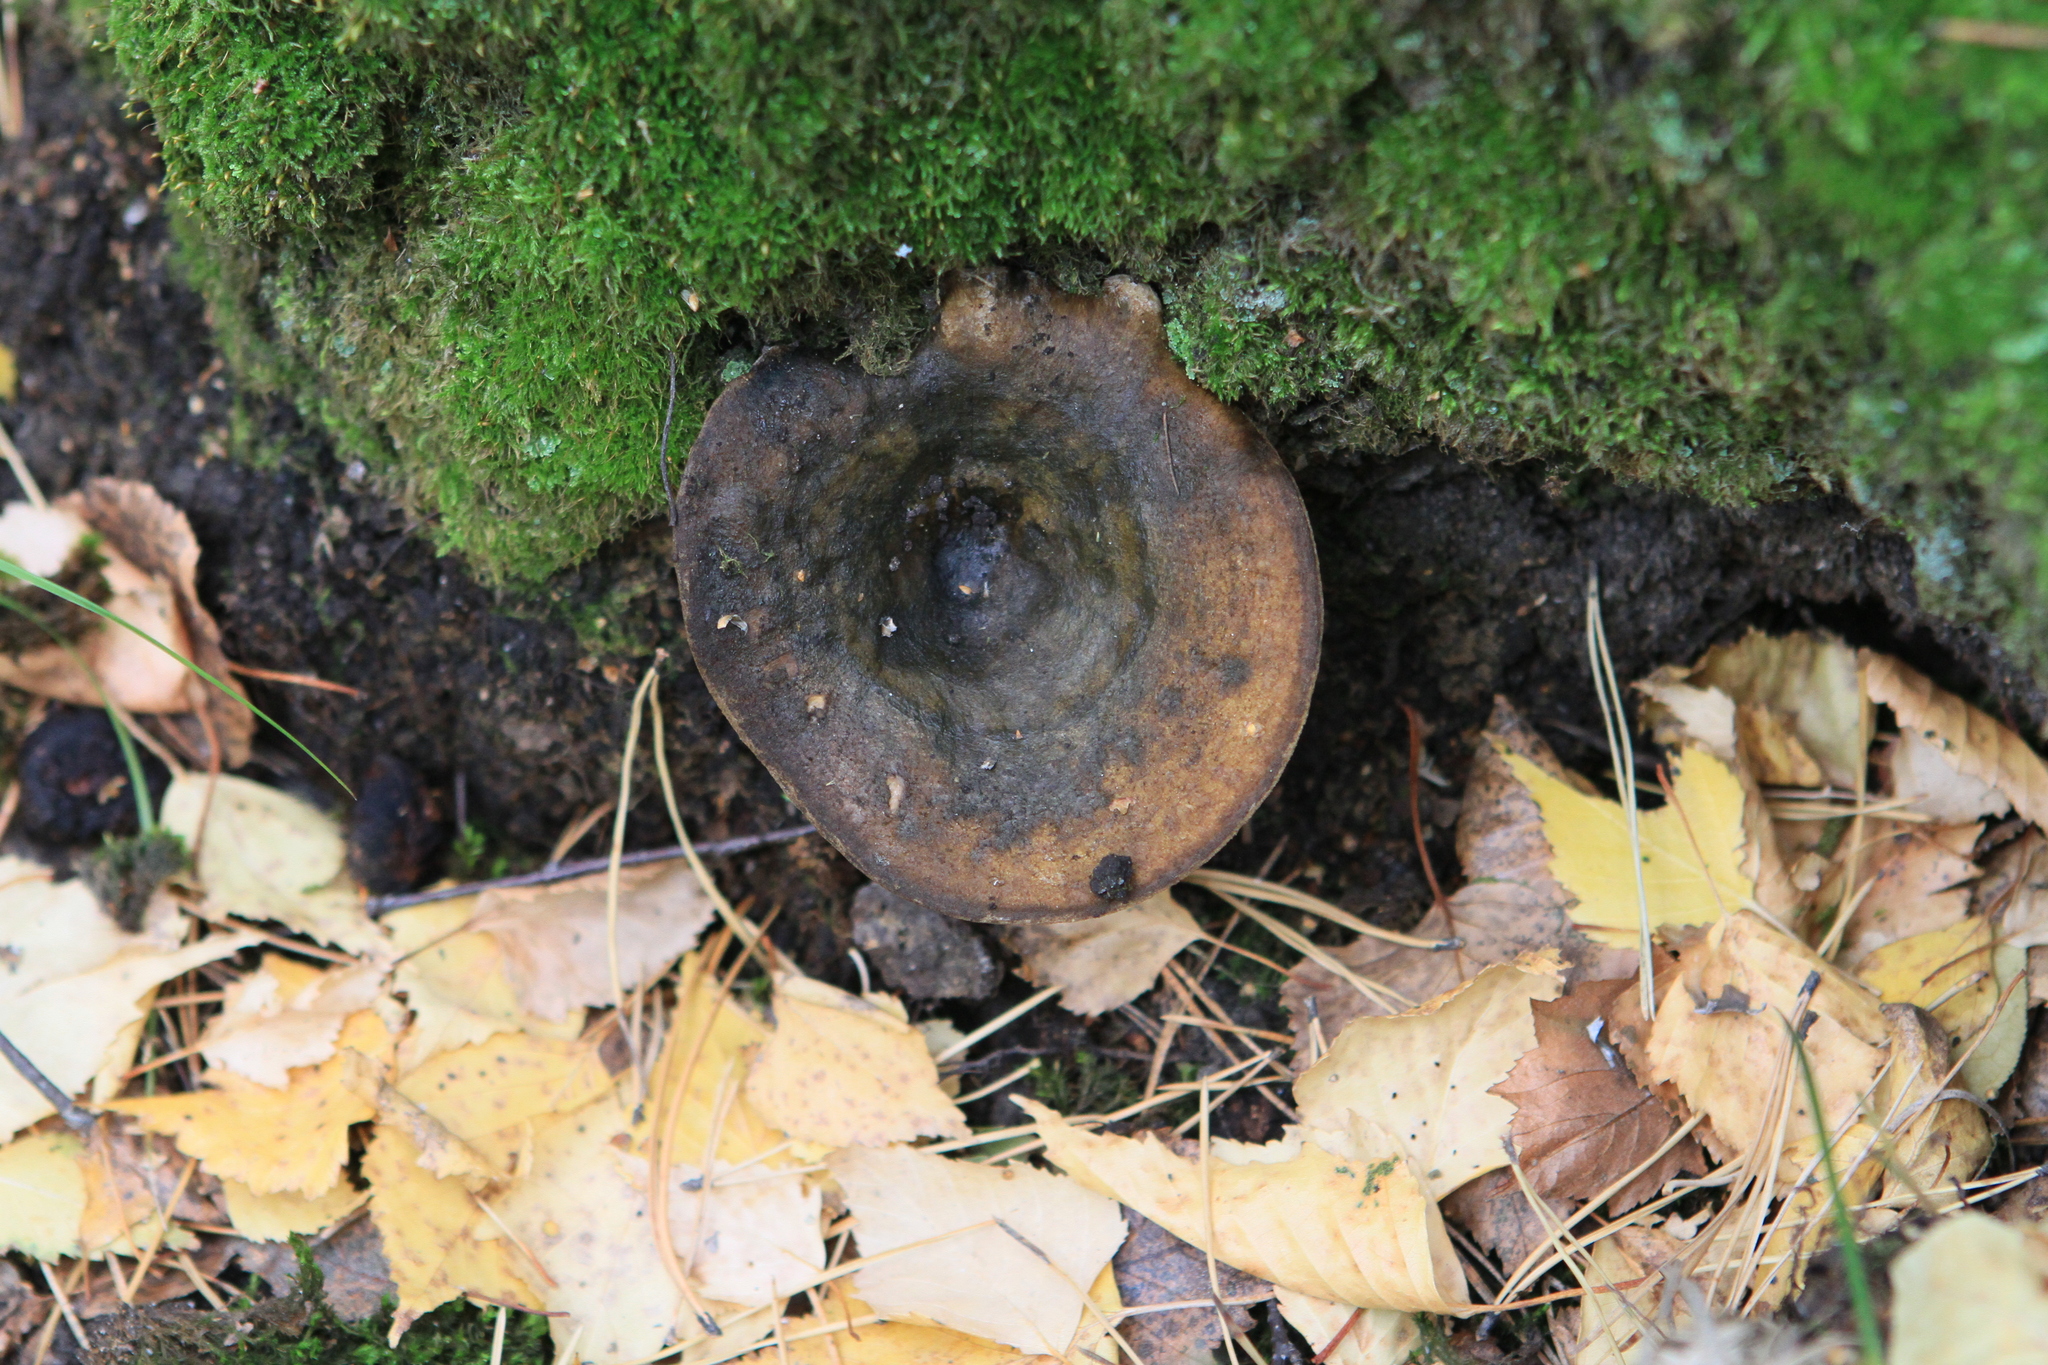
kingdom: Fungi
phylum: Basidiomycota
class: Agaricomycetes
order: Russulales
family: Russulaceae
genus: Lactarius
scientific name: Lactarius turpis
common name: Ugly milk-cap
